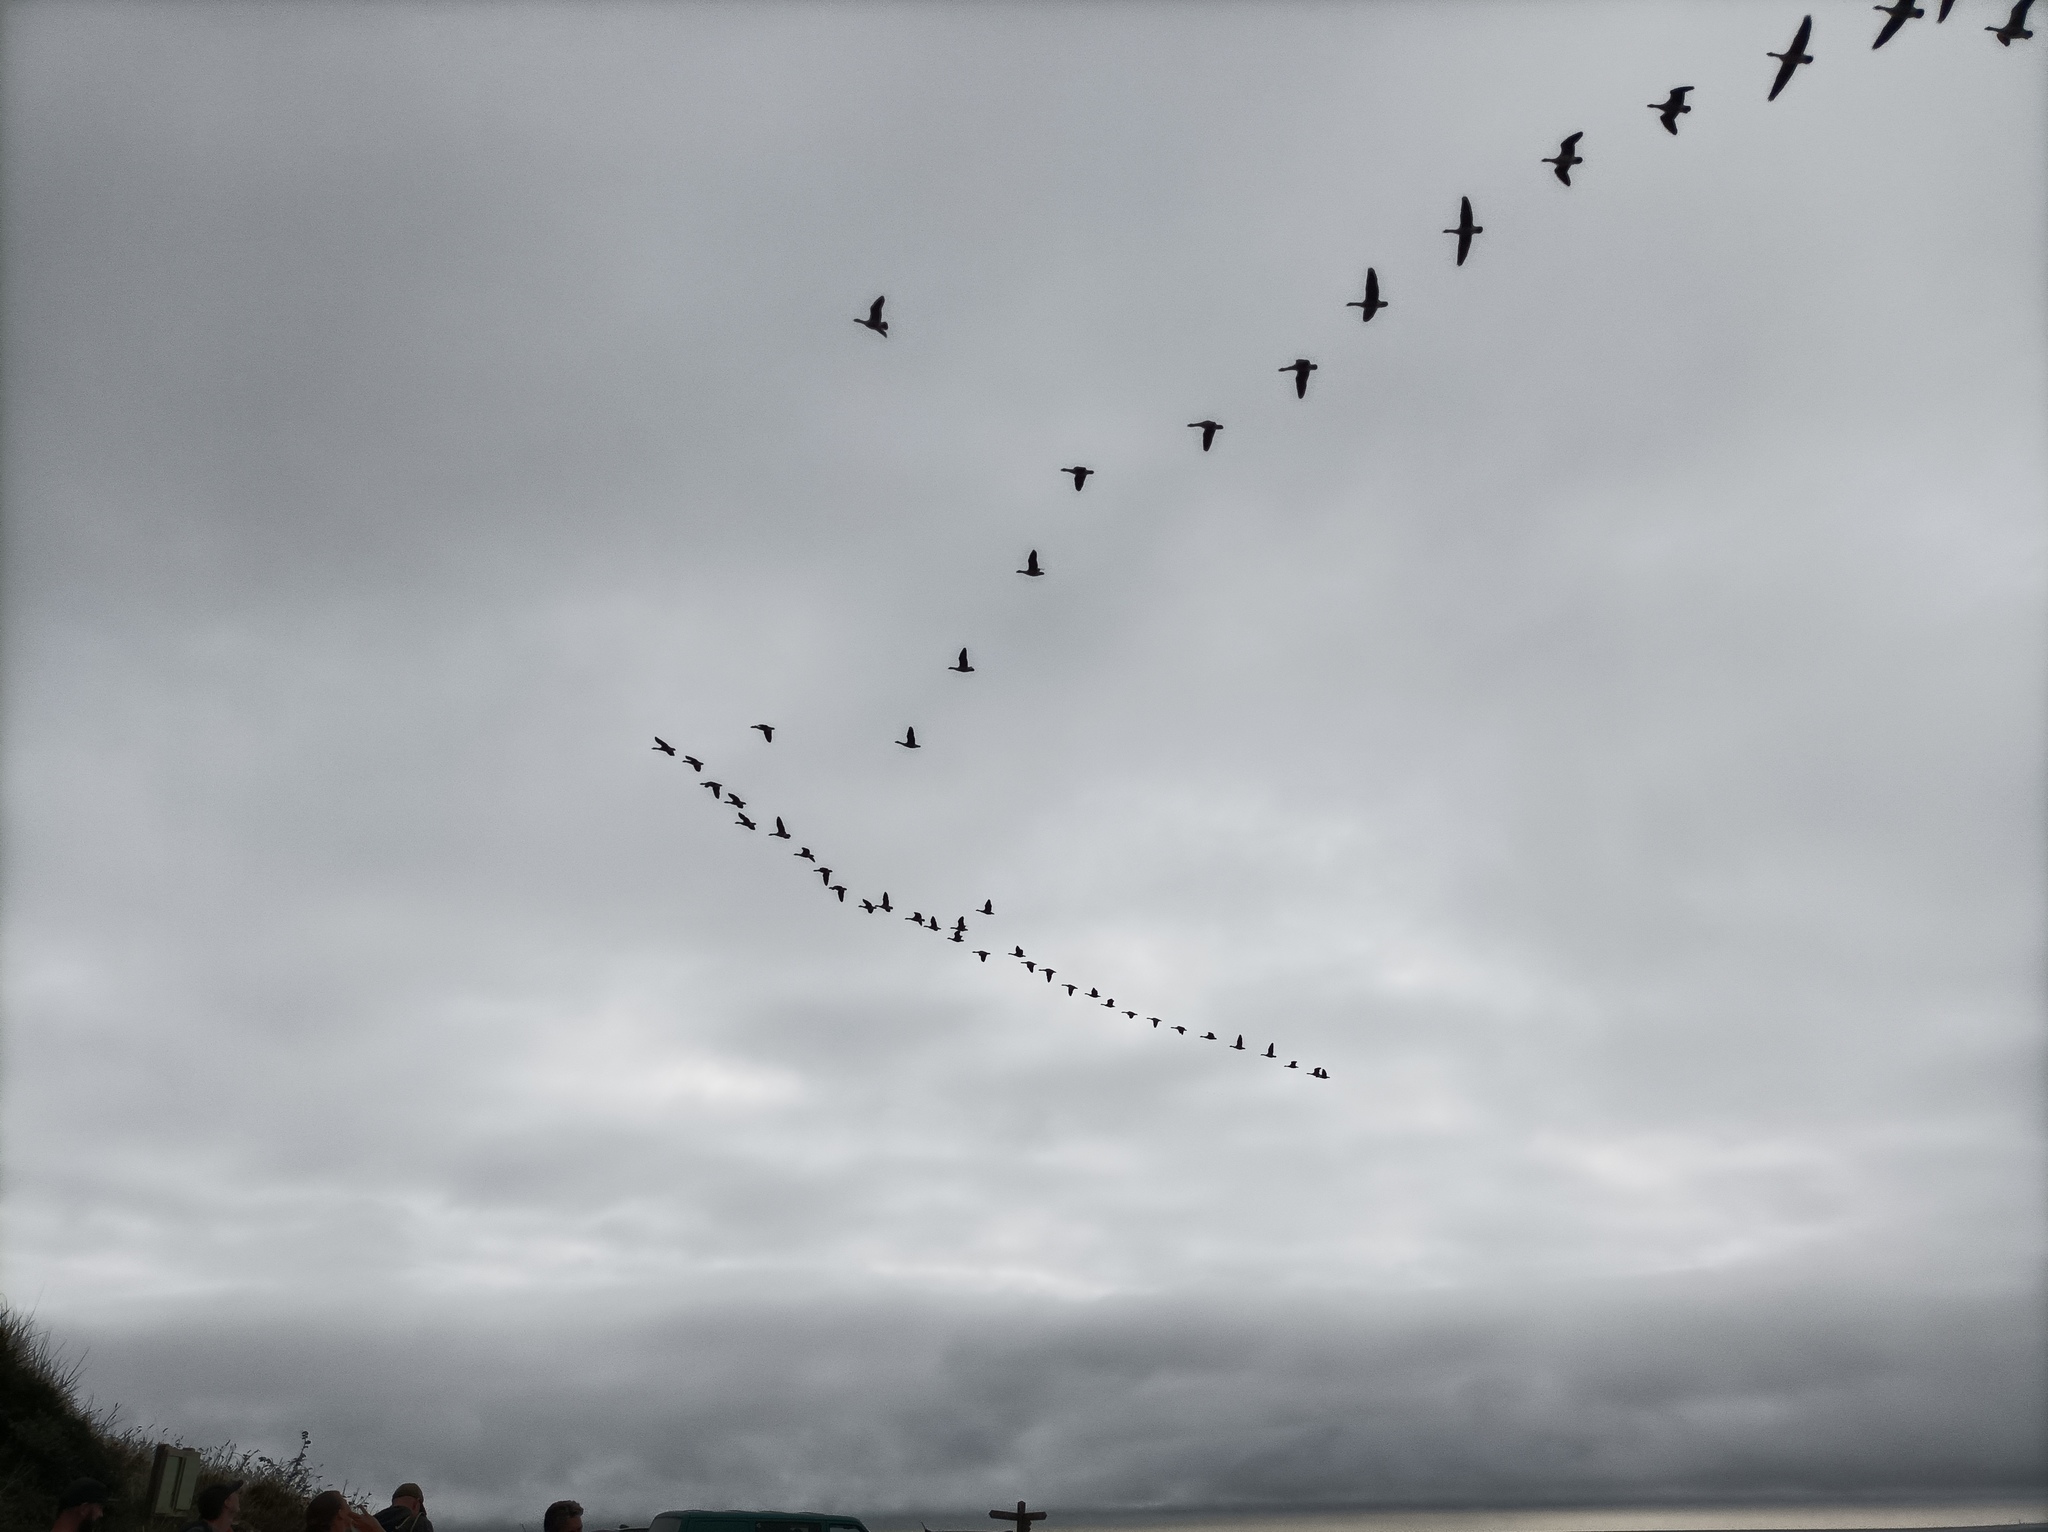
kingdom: Animalia
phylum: Chordata
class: Aves
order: Anseriformes
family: Anatidae
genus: Branta
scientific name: Branta canadensis
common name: Canada goose
